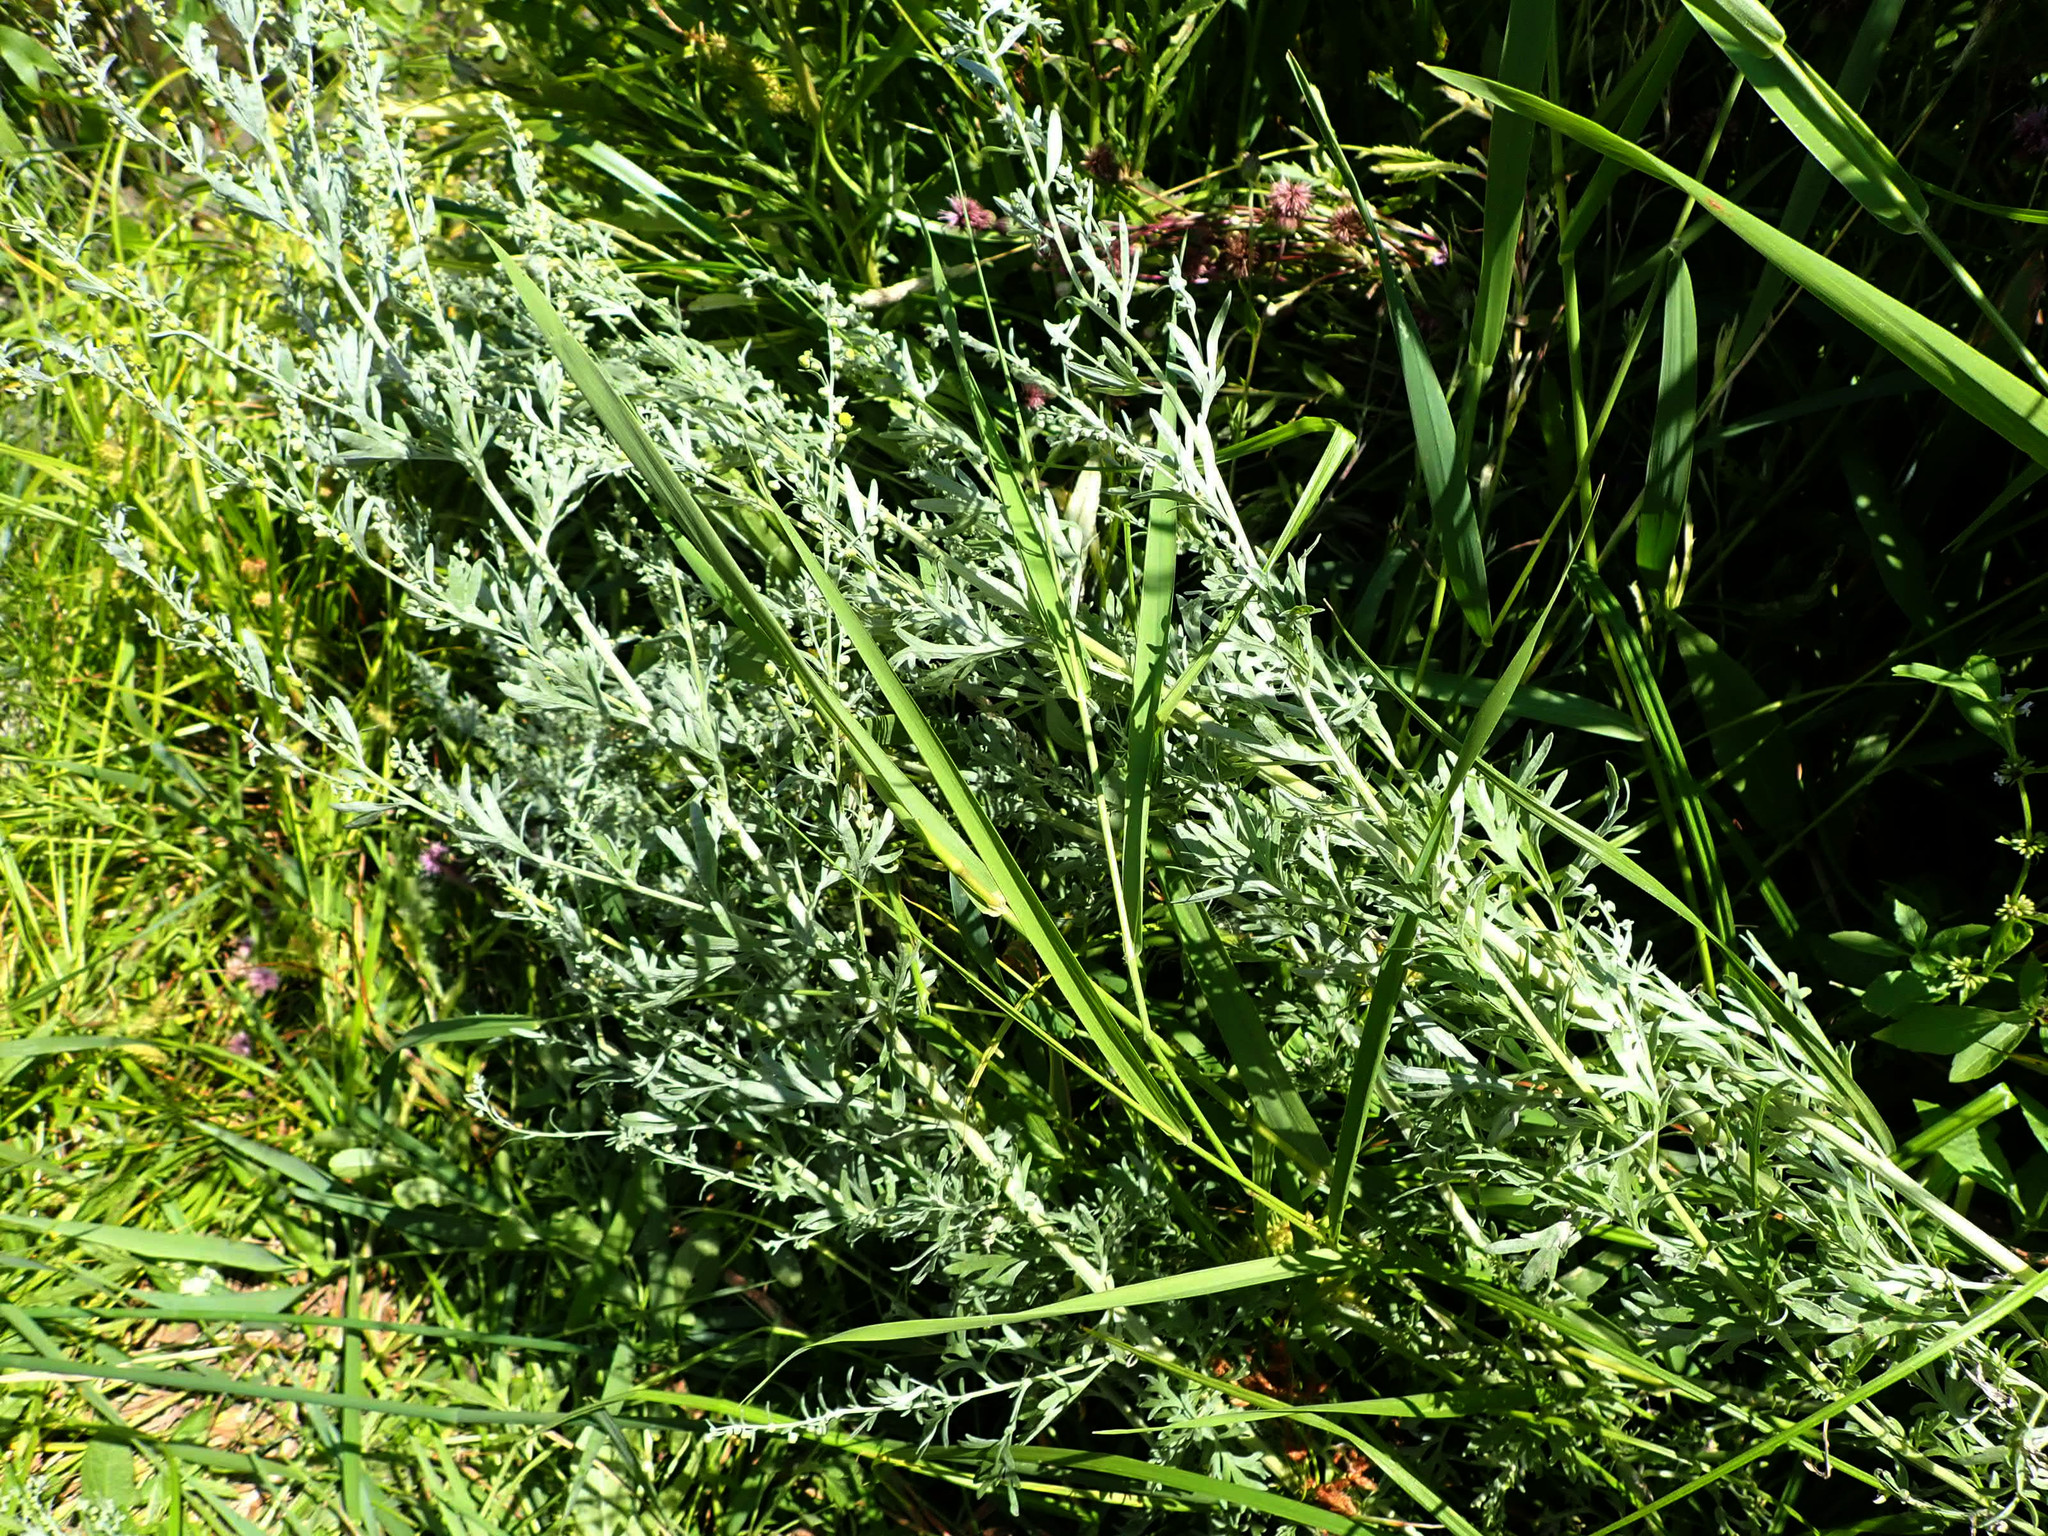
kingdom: Plantae
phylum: Tracheophyta
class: Magnoliopsida
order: Asterales
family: Asteraceae
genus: Artemisia
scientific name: Artemisia absinthium
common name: Wormwood
